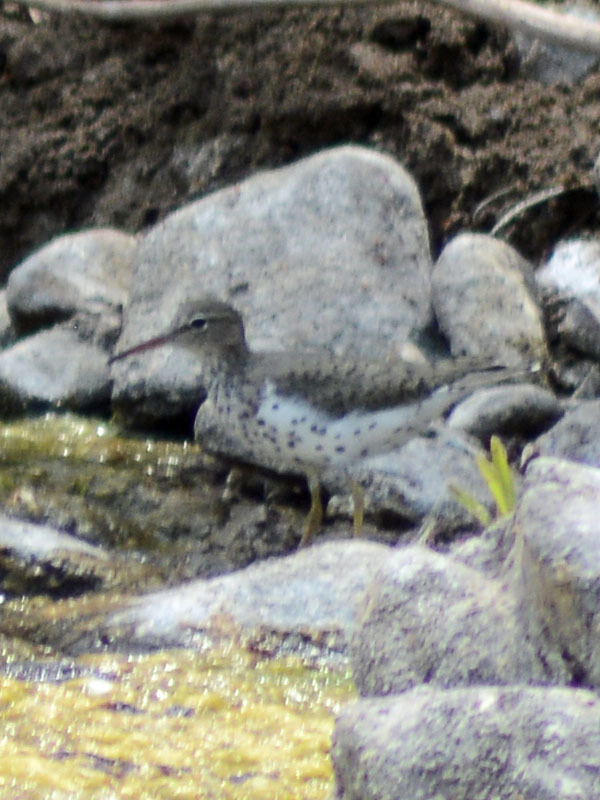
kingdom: Animalia
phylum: Chordata
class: Aves
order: Charadriiformes
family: Scolopacidae
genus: Actitis
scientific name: Actitis macularius
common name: Spotted sandpiper
